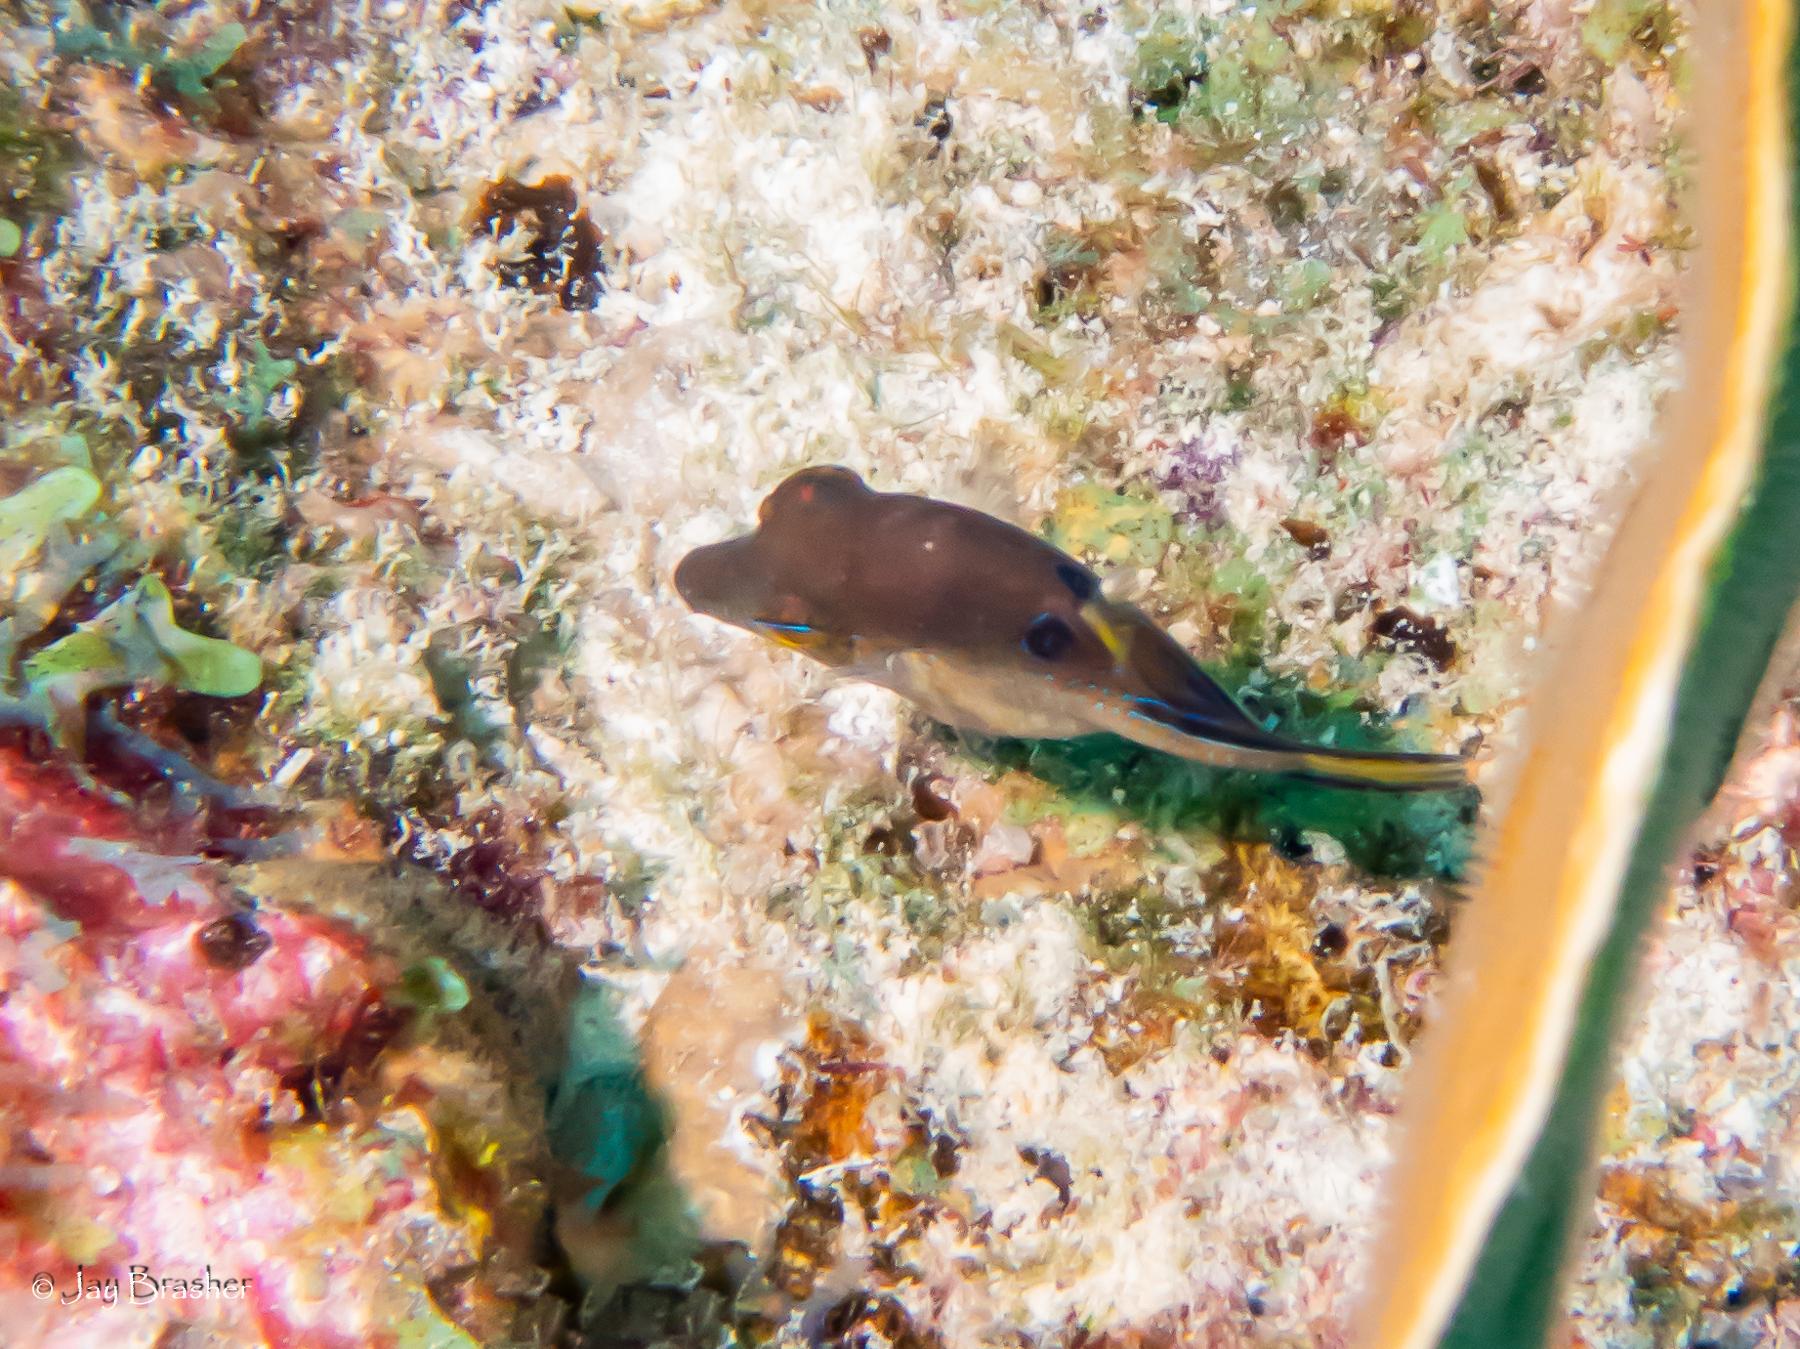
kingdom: Animalia
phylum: Chordata
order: Tetraodontiformes
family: Tetraodontidae
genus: Canthigaster
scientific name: Canthigaster rostrata
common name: Caribbean sharpnose-puffer
